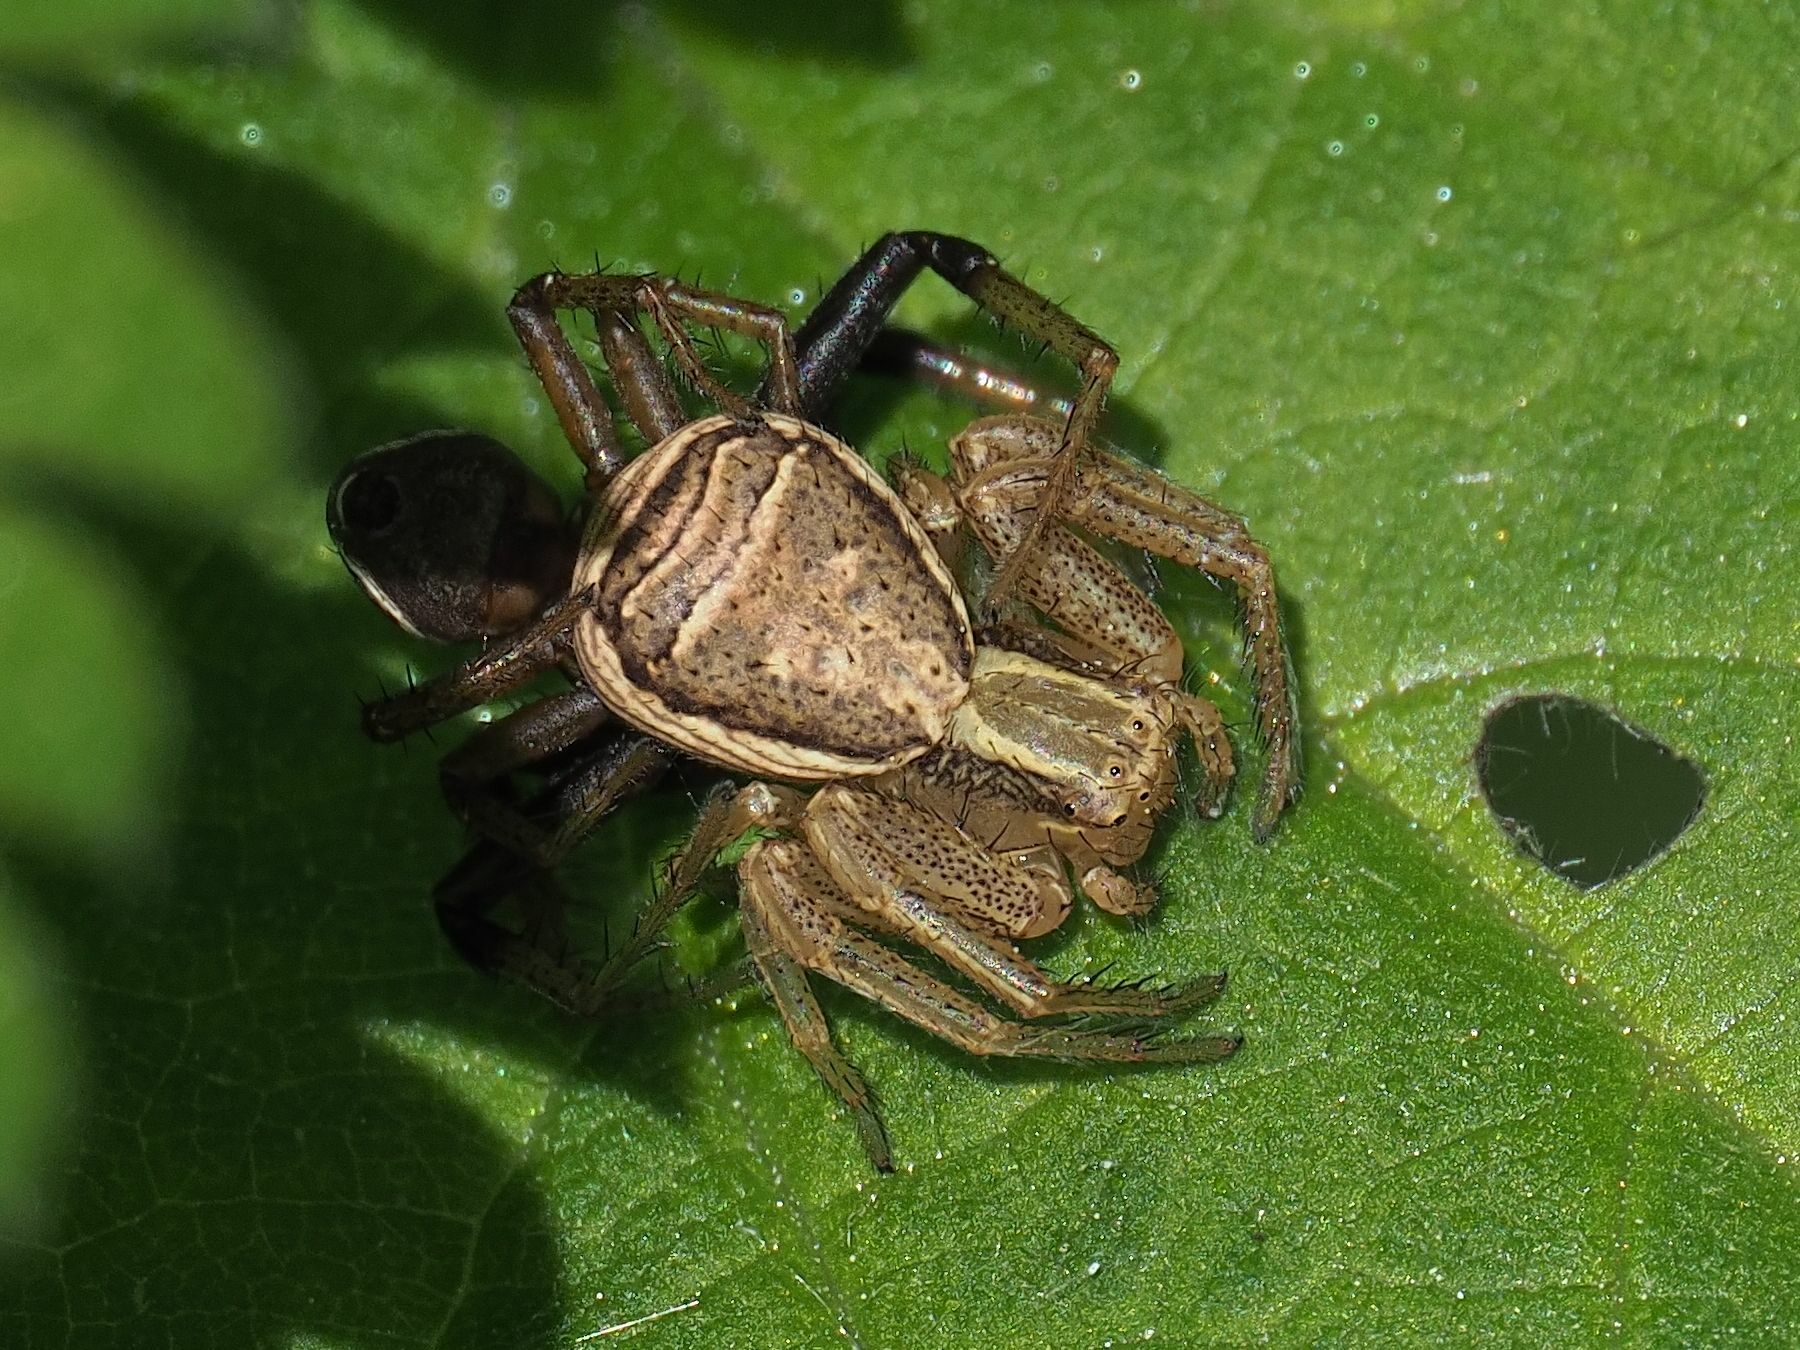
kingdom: Animalia
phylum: Arthropoda
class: Arachnida
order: Araneae
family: Thomisidae
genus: Xysticus
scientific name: Xysticus ulmi
